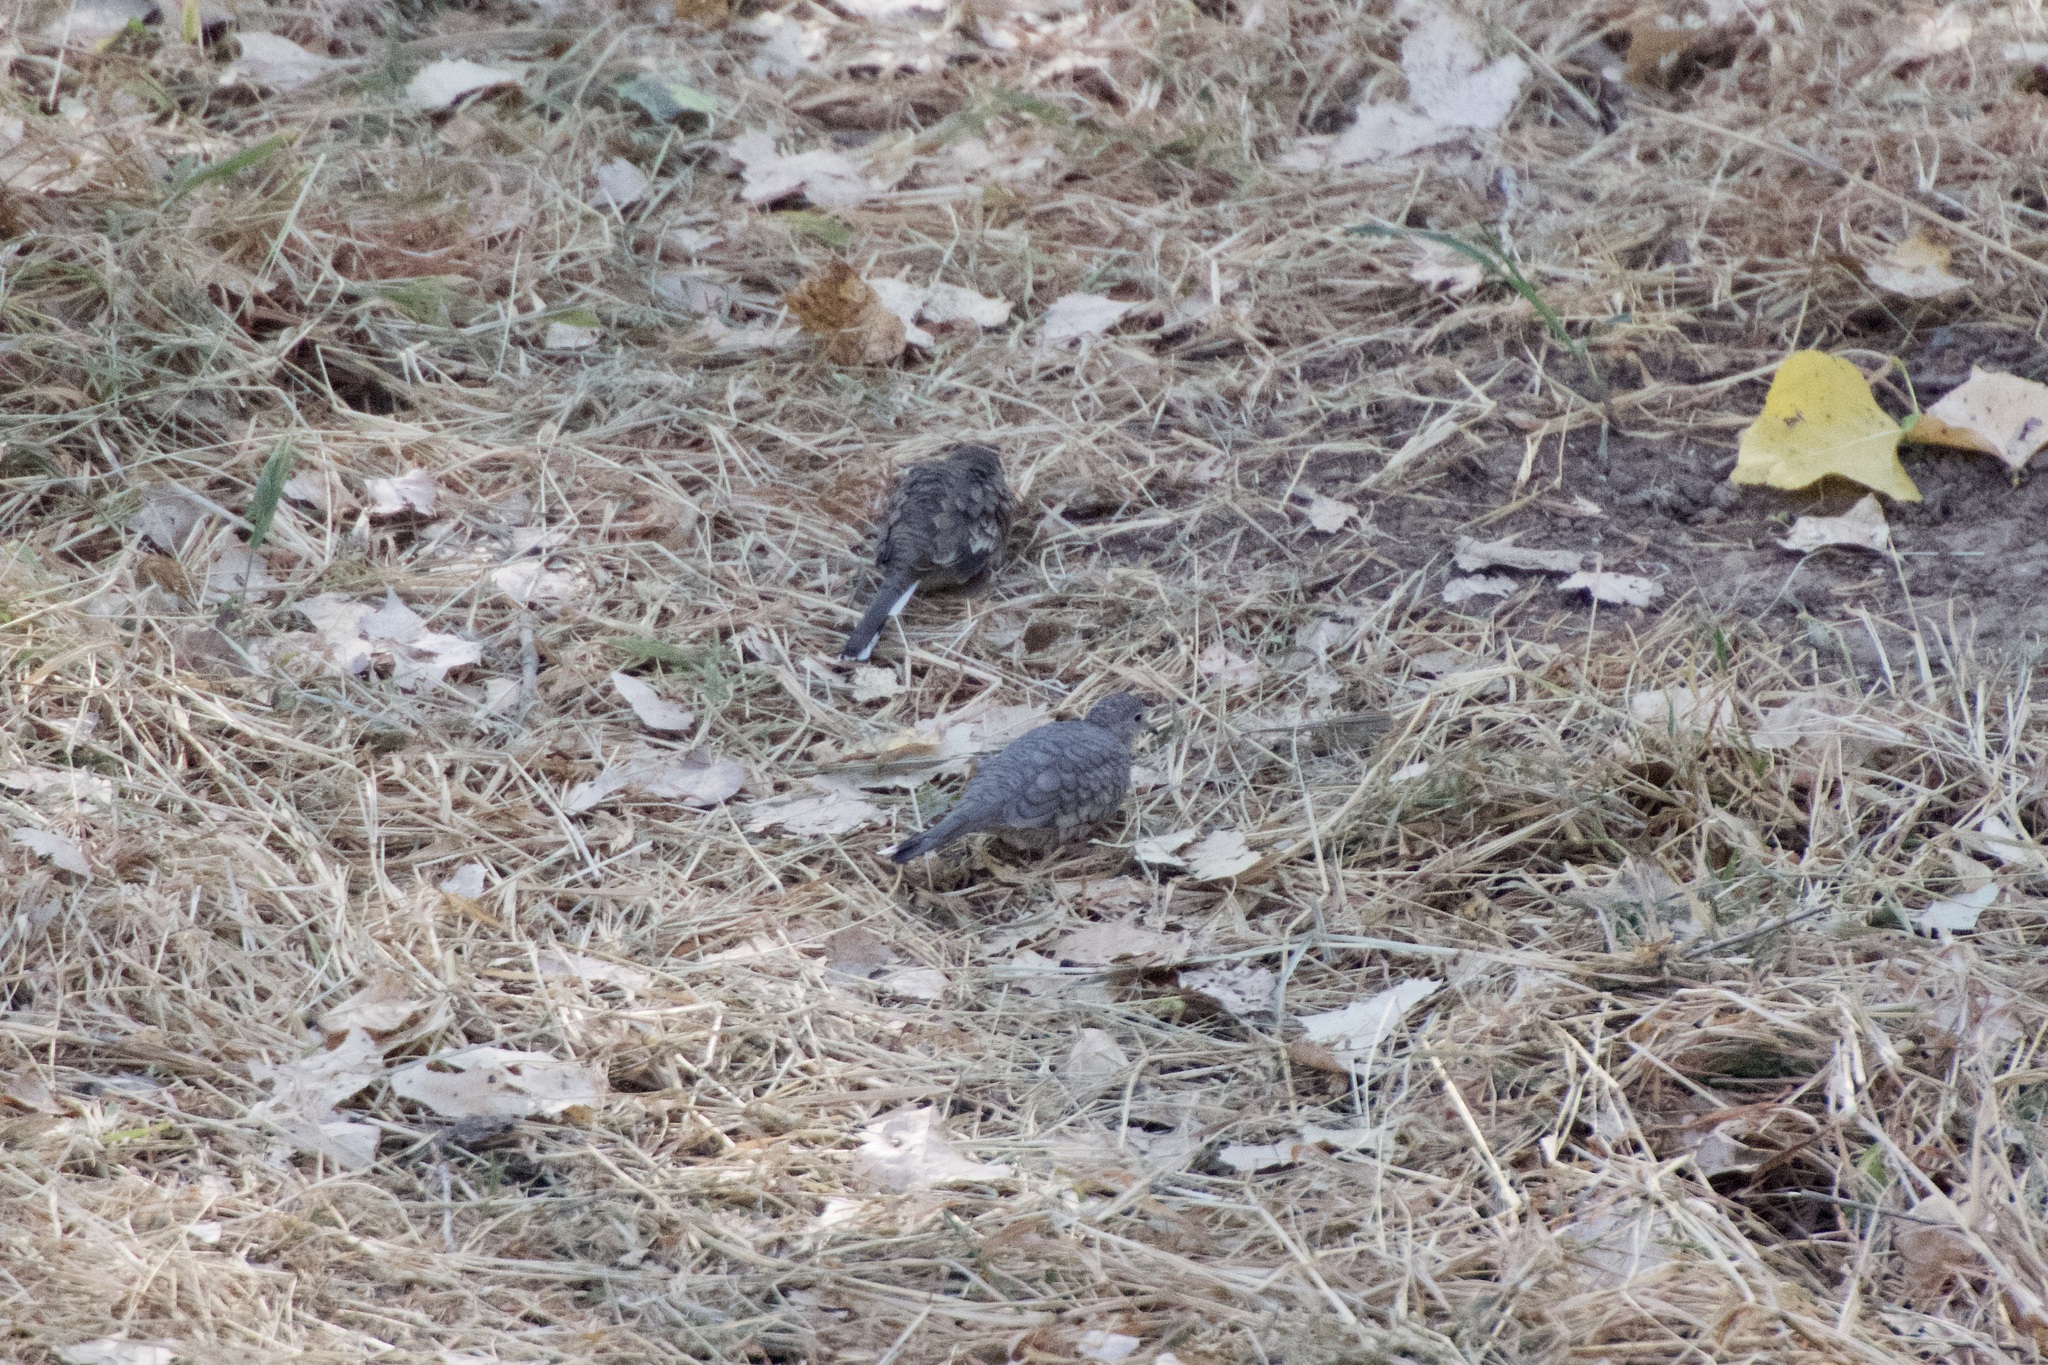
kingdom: Animalia
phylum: Chordata
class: Aves
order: Columbiformes
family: Columbidae
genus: Columbina
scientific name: Columbina inca
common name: Inca dove
